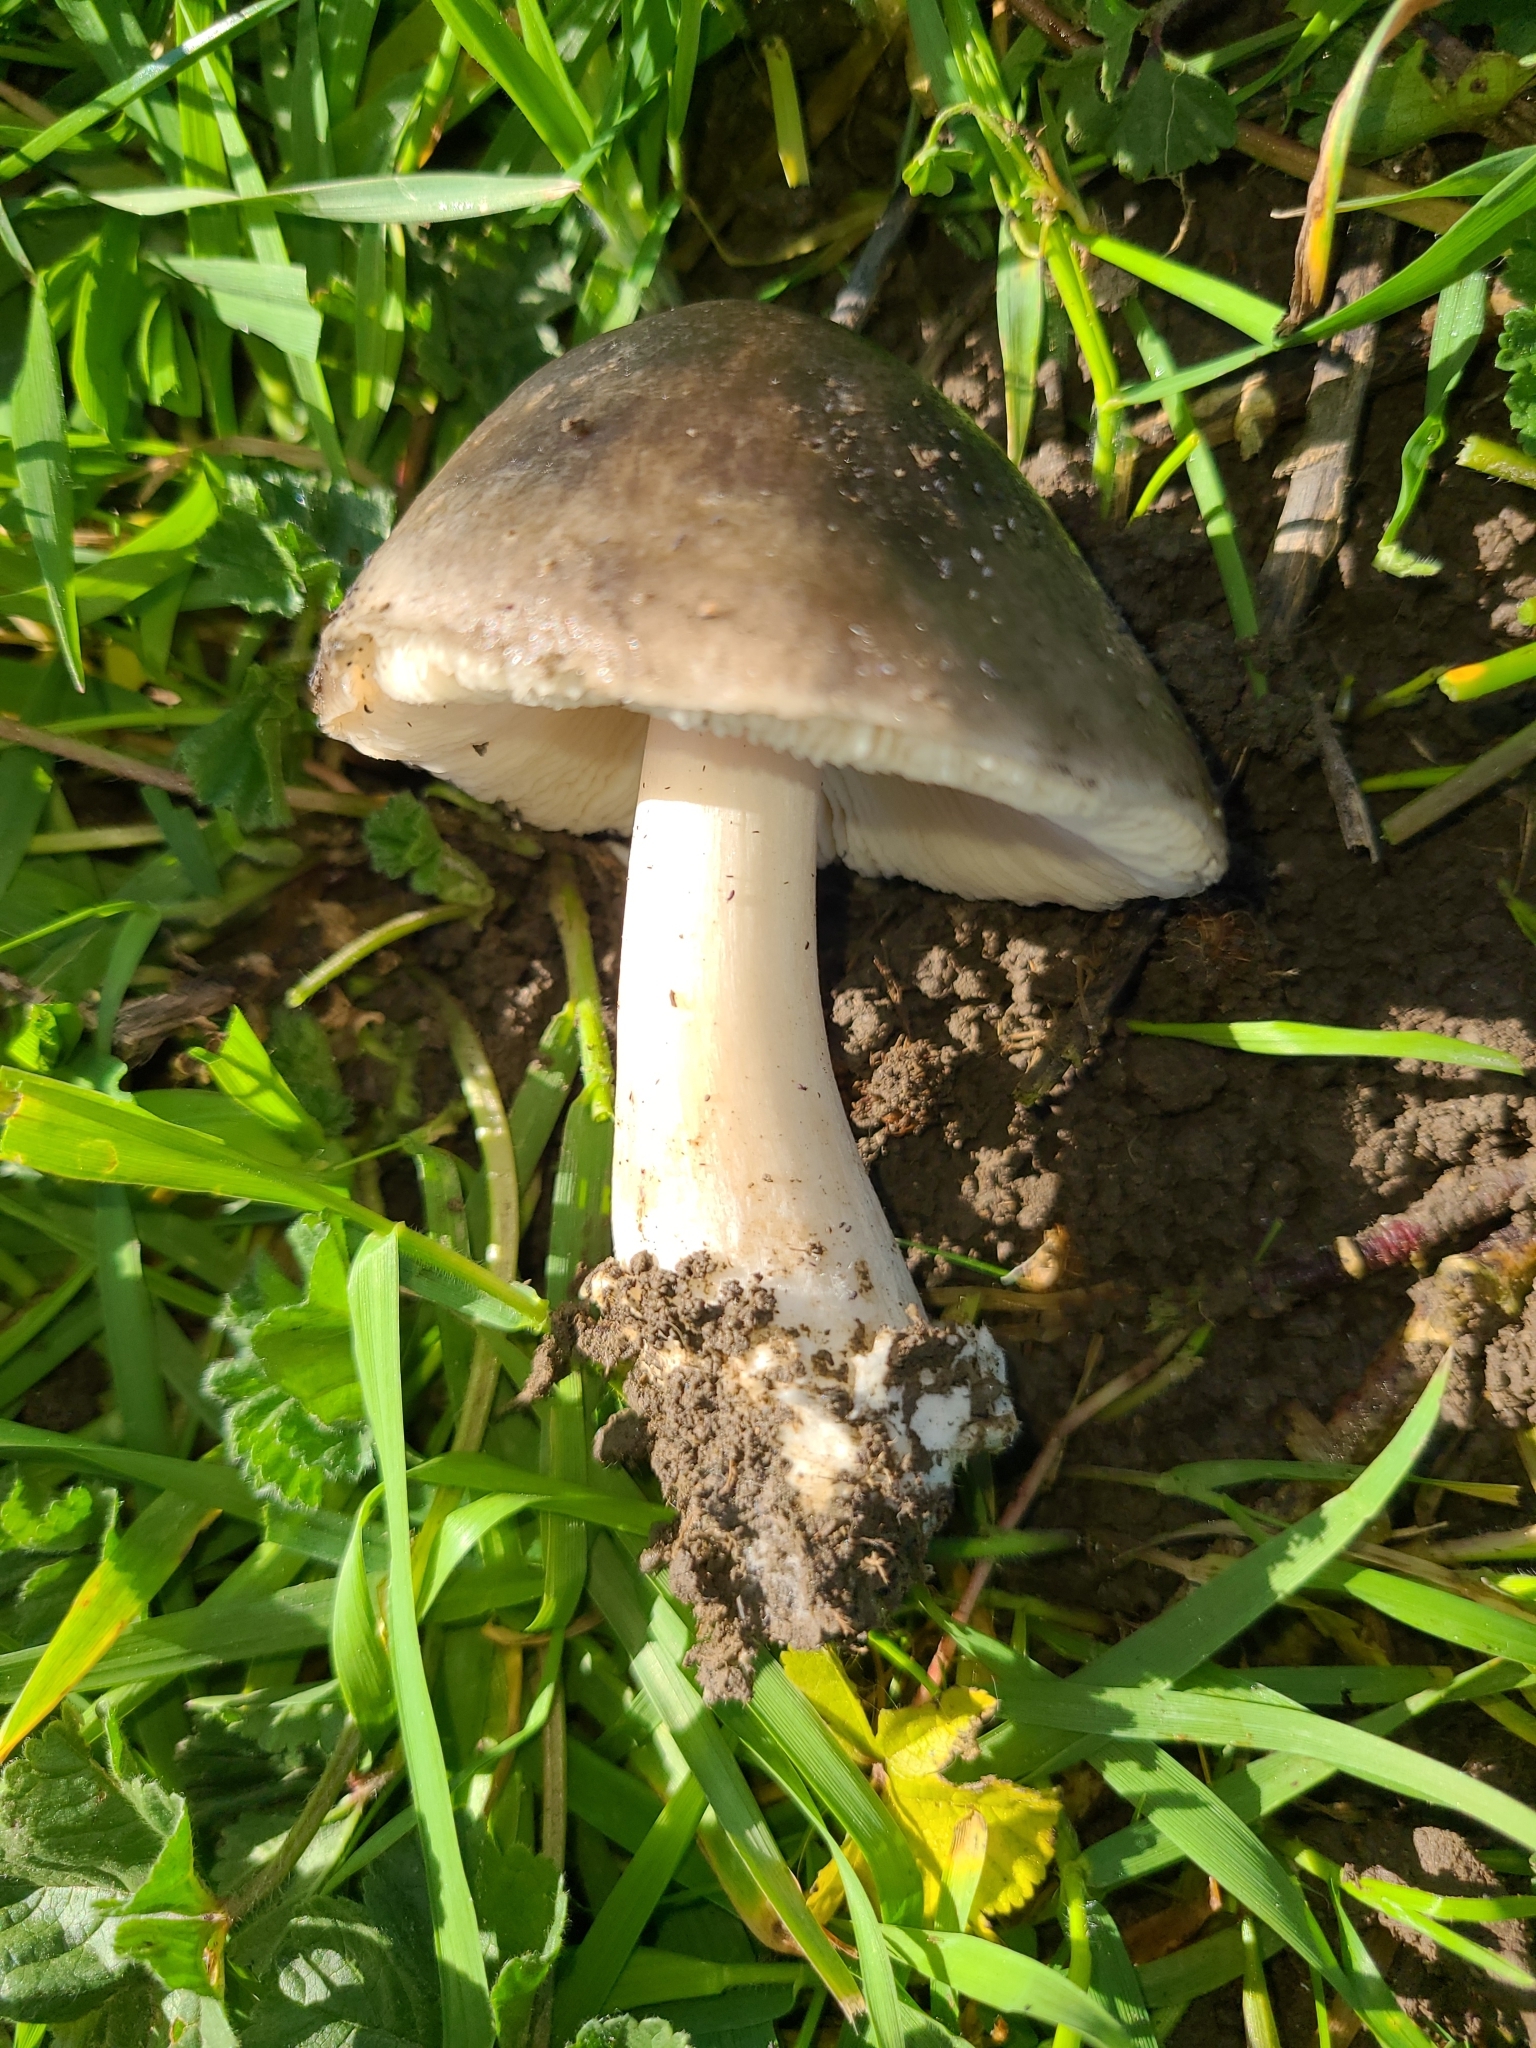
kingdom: Fungi
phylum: Basidiomycota
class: Agaricomycetes
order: Agaricales
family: Pluteaceae
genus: Volvopluteus
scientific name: Volvopluteus gloiocephalus
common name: Stubble rosegill
